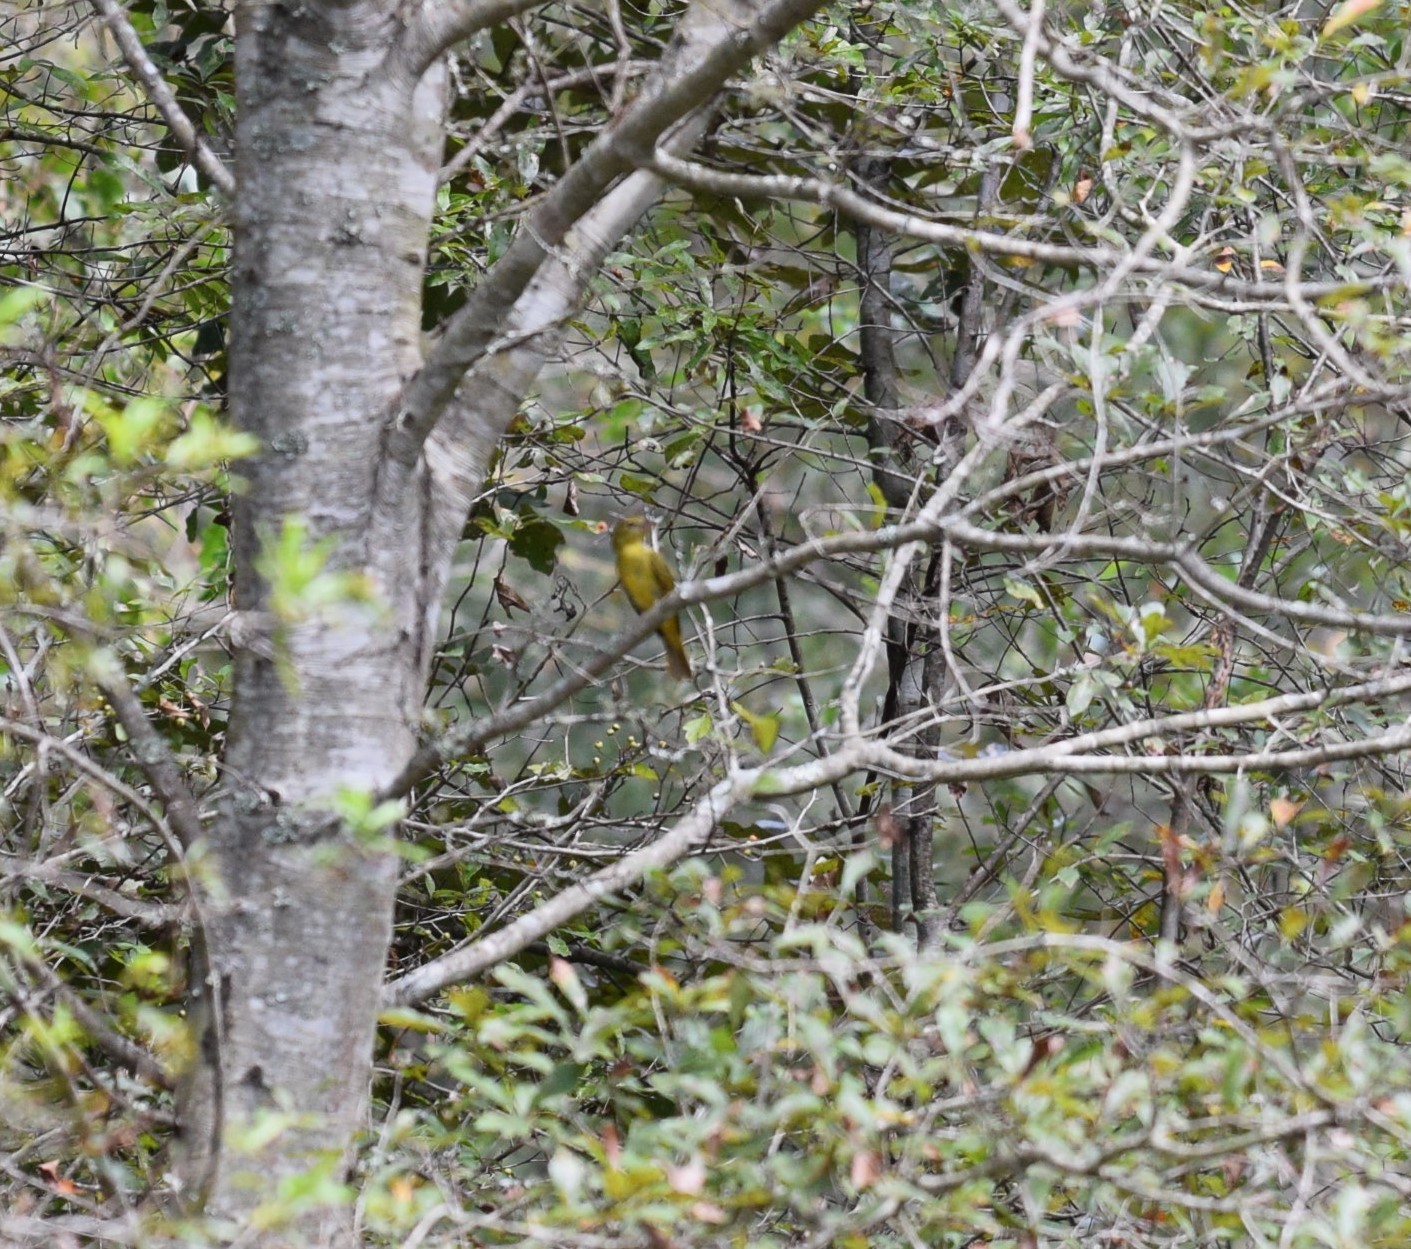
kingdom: Animalia
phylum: Chordata
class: Aves
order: Passeriformes
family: Cardinalidae
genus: Piranga
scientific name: Piranga rubra
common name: Summer tanager
